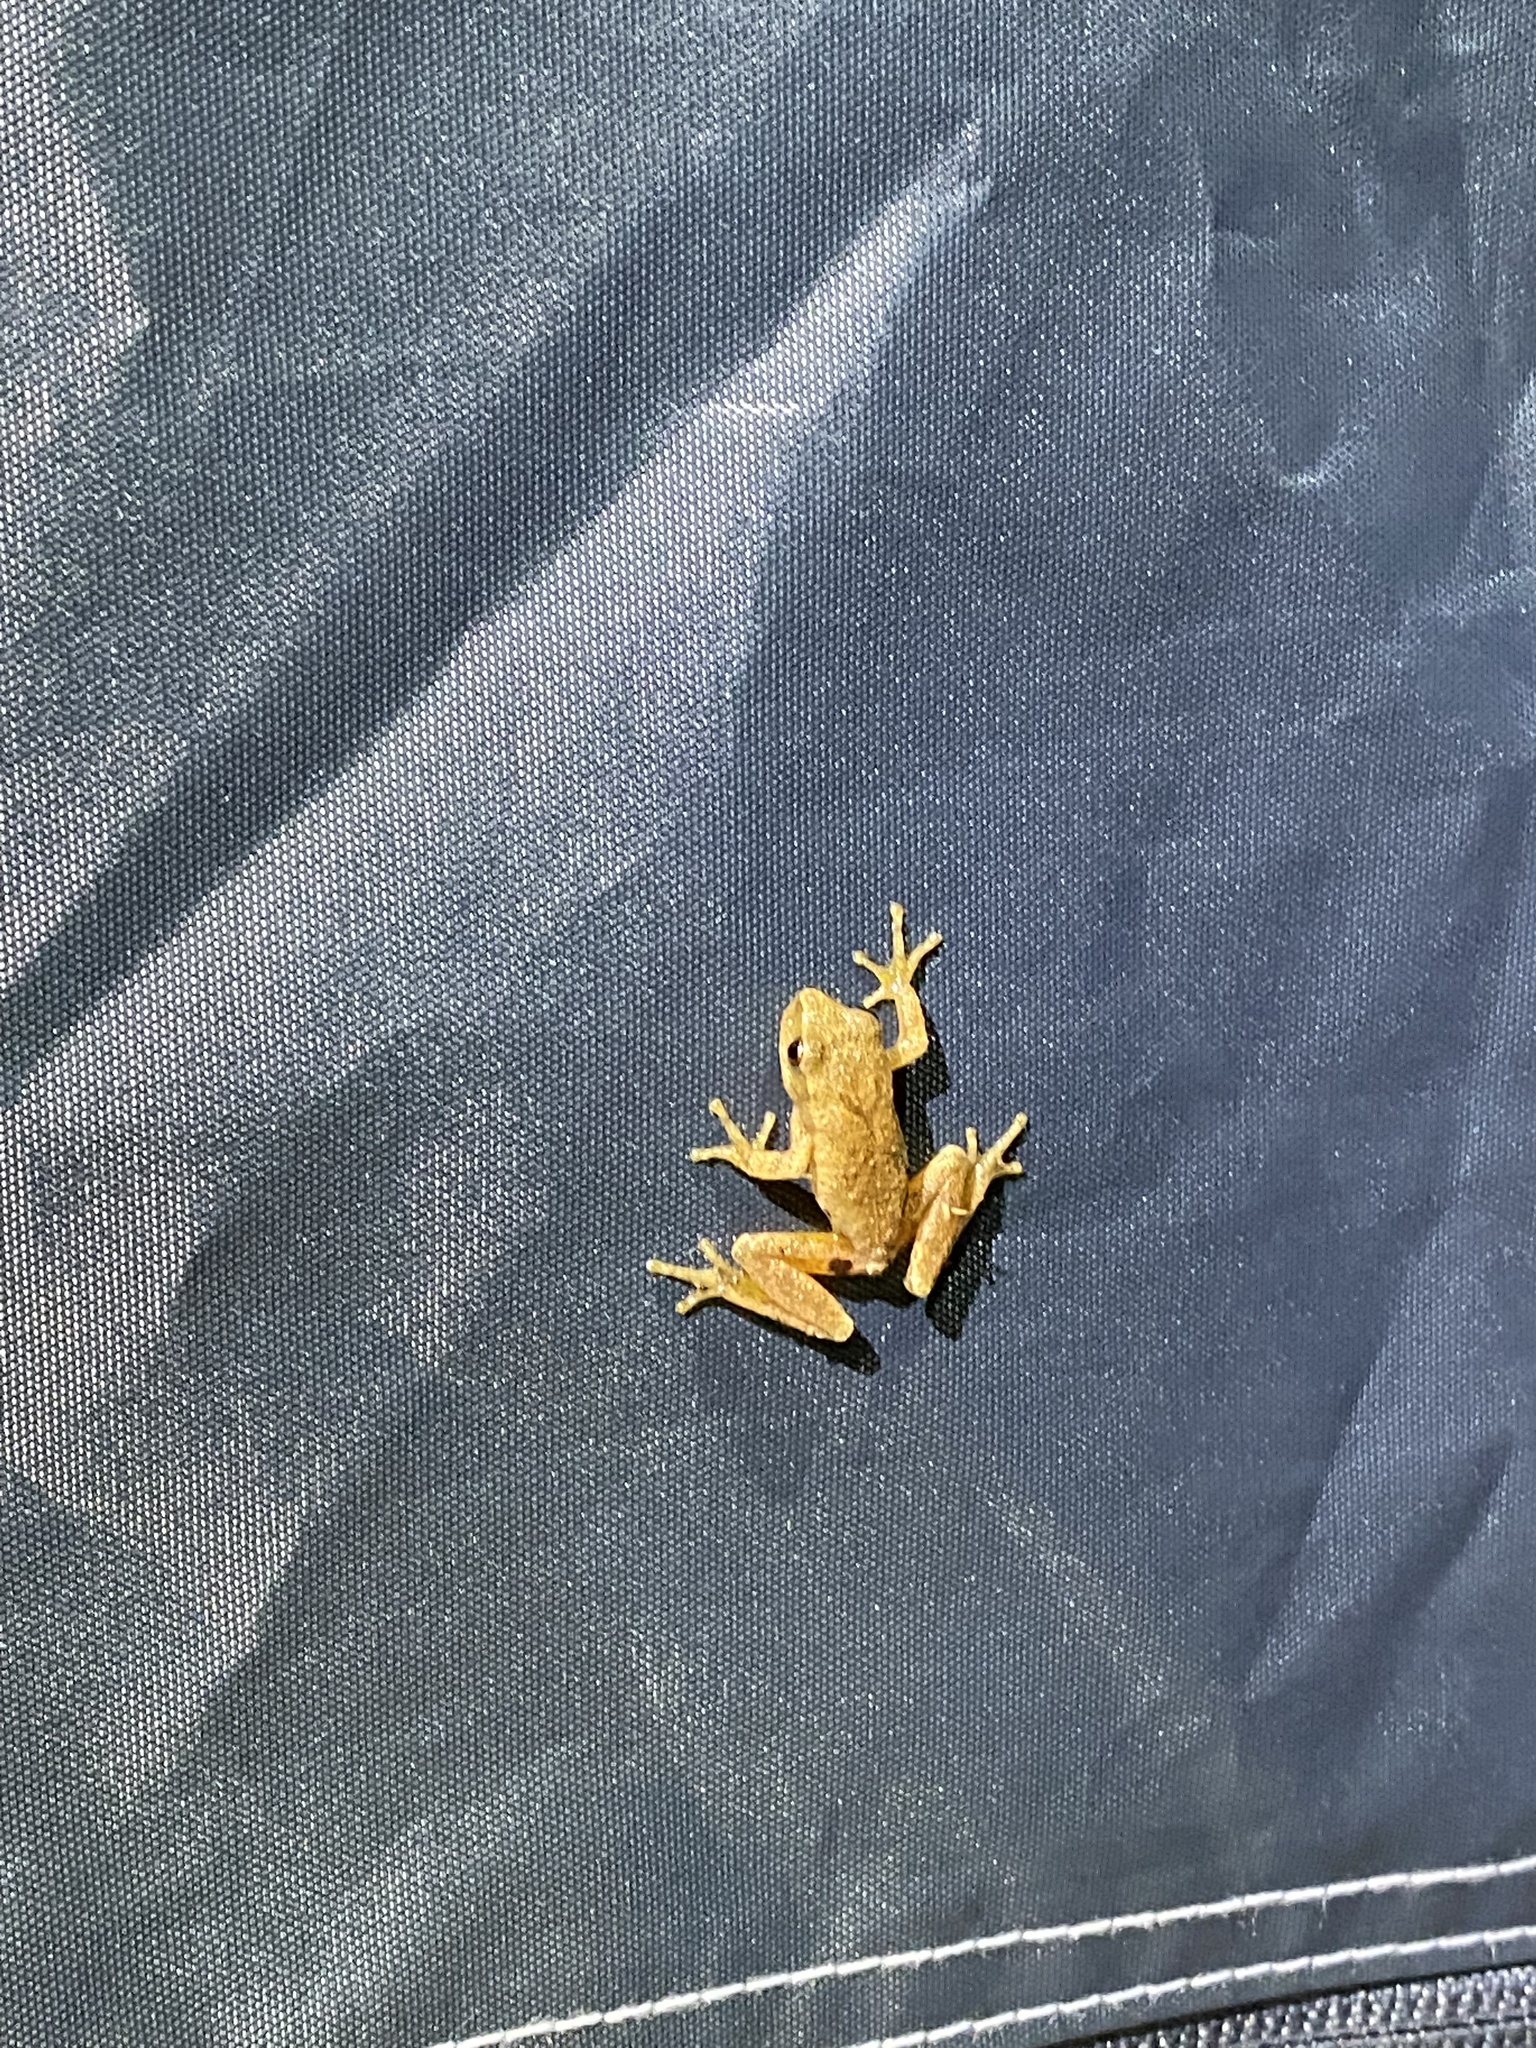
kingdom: Animalia
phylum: Chordata
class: Amphibia
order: Anura
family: Hylidae
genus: Pseudacris
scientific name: Pseudacris crucifer
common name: Spring peeper
